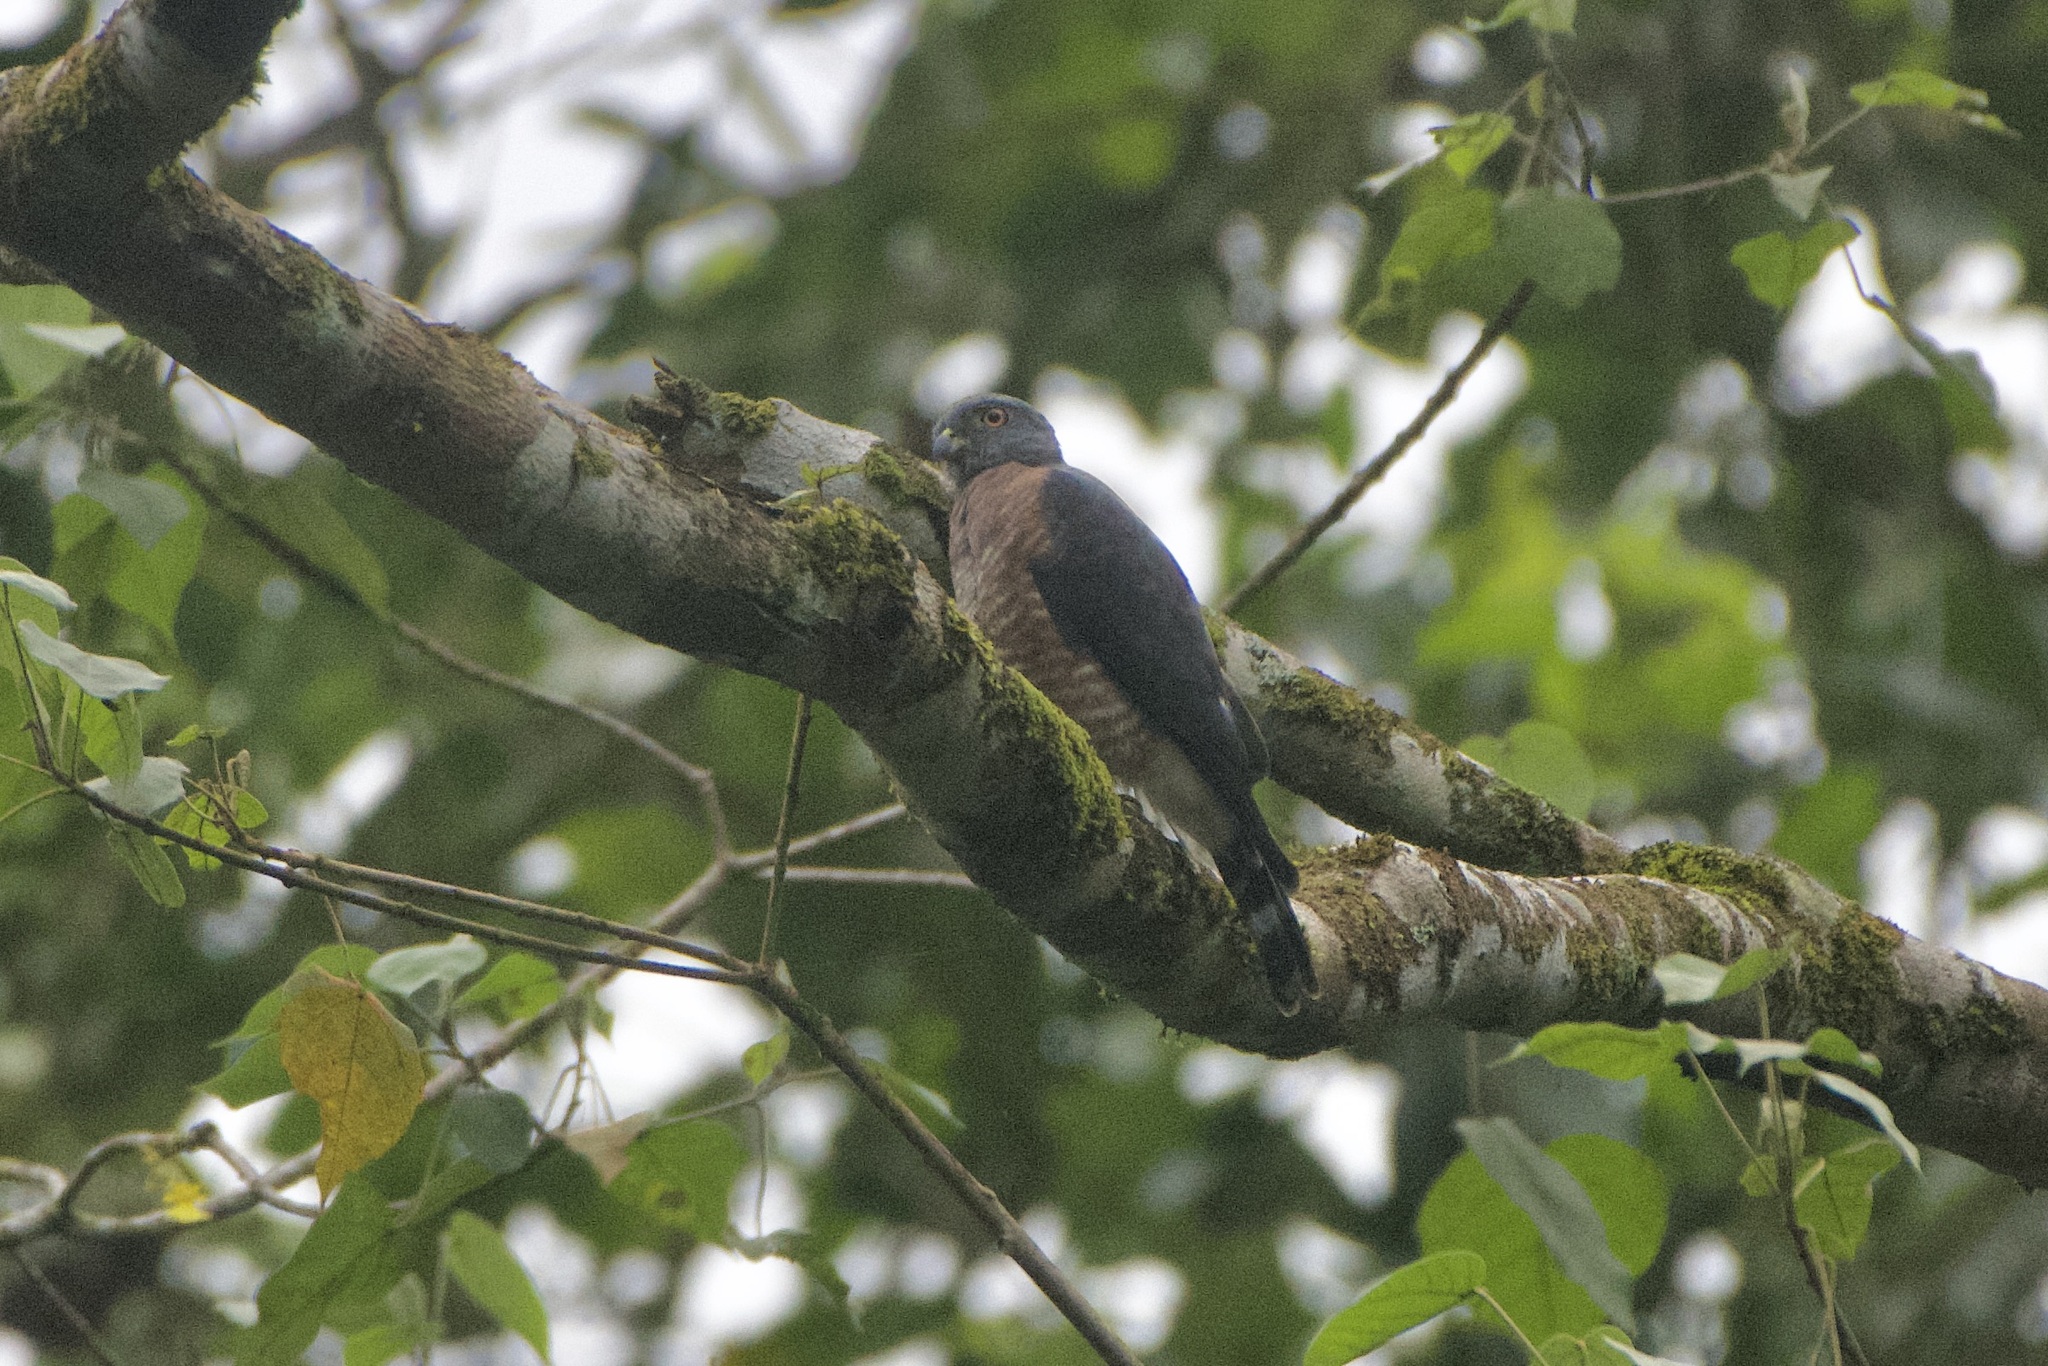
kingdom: Animalia
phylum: Chordata
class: Aves
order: Accipitriformes
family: Accipitridae
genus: Harpagus
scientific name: Harpagus bidentatus
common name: Double-toothed kite
